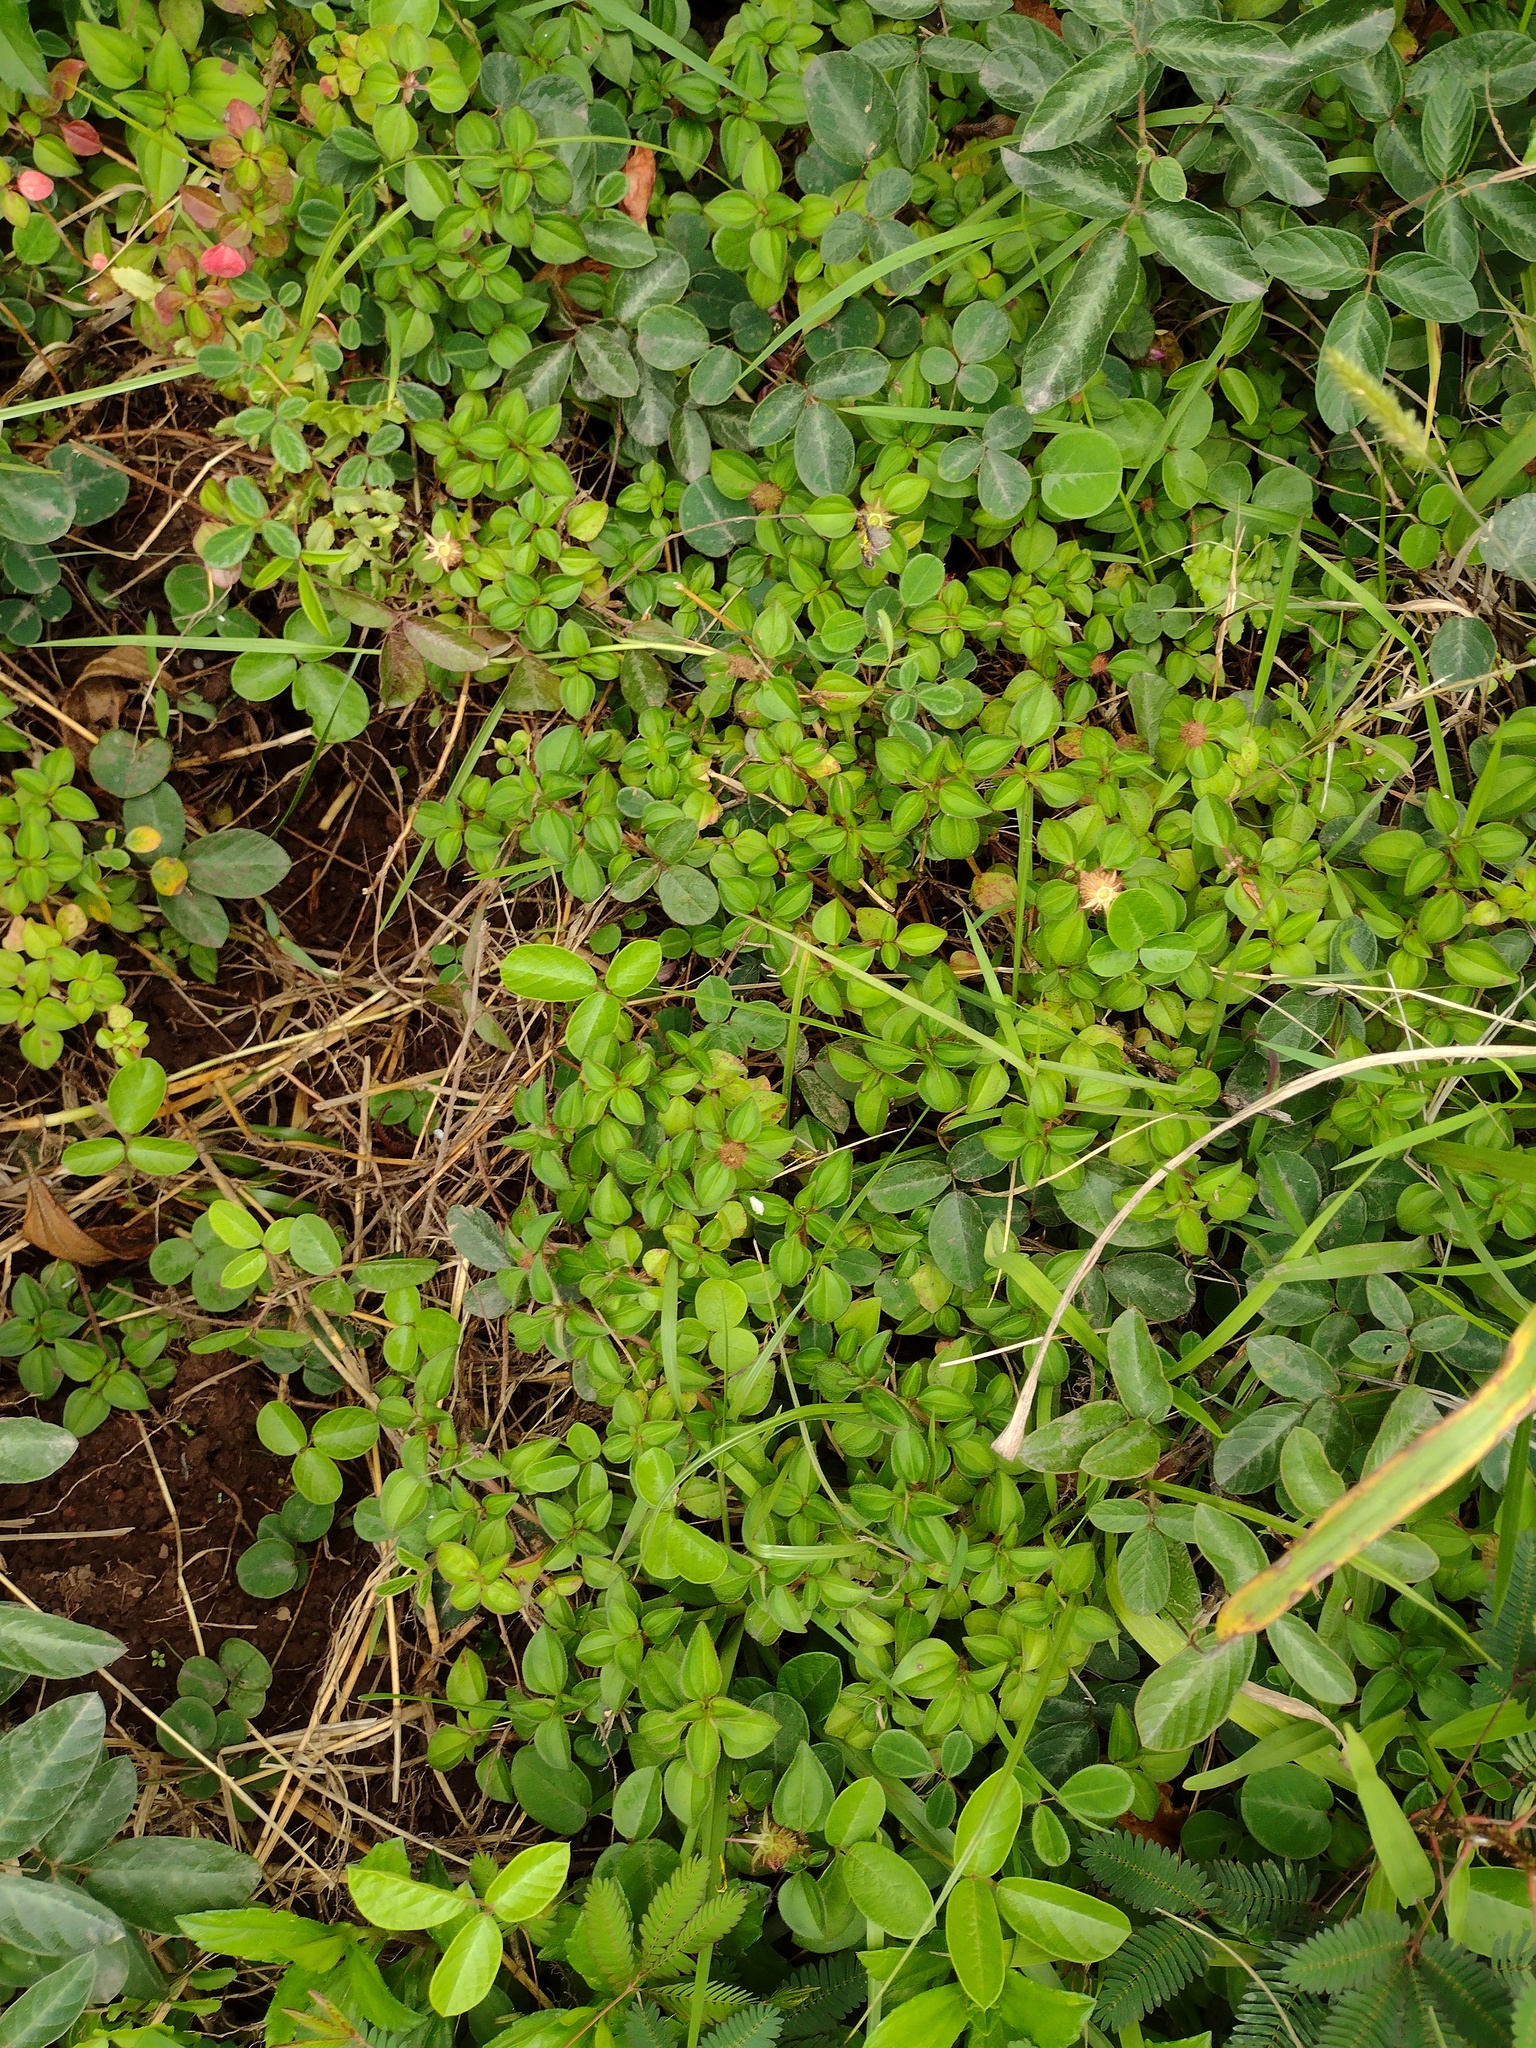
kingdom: Plantae
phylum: Tracheophyta
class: Magnoliopsida
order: Myrtales
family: Melastomataceae
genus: Heterotis
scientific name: Heterotis rotundifolia
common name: Pinklady
